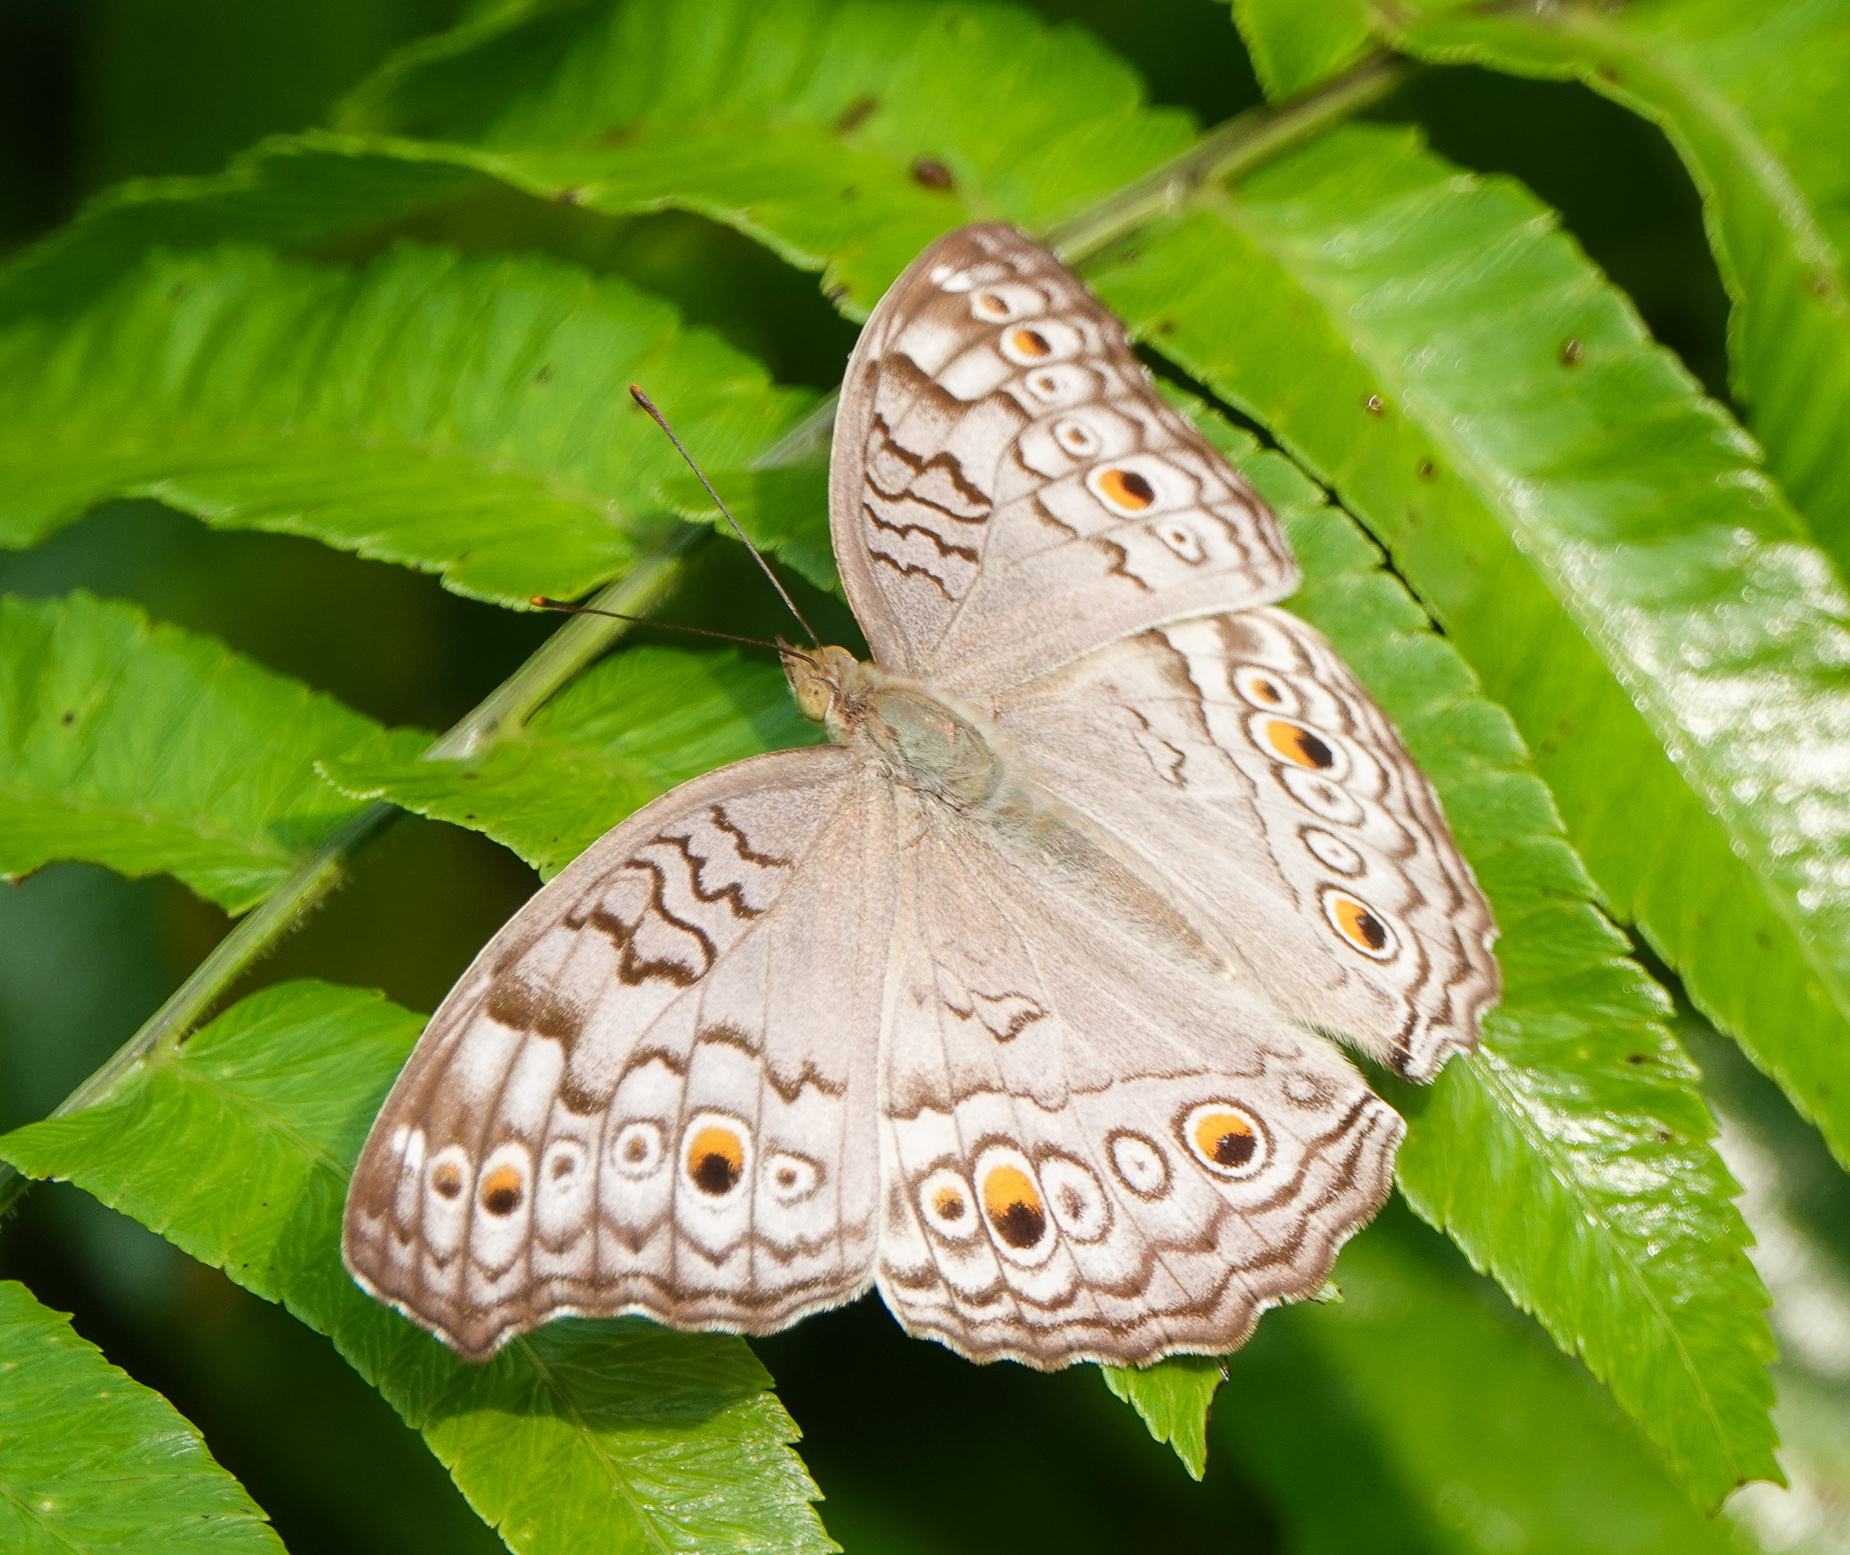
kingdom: Animalia
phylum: Arthropoda
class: Insecta
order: Lepidoptera
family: Nymphalidae
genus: Junonia
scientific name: Junonia atlites
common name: Grey pansy
